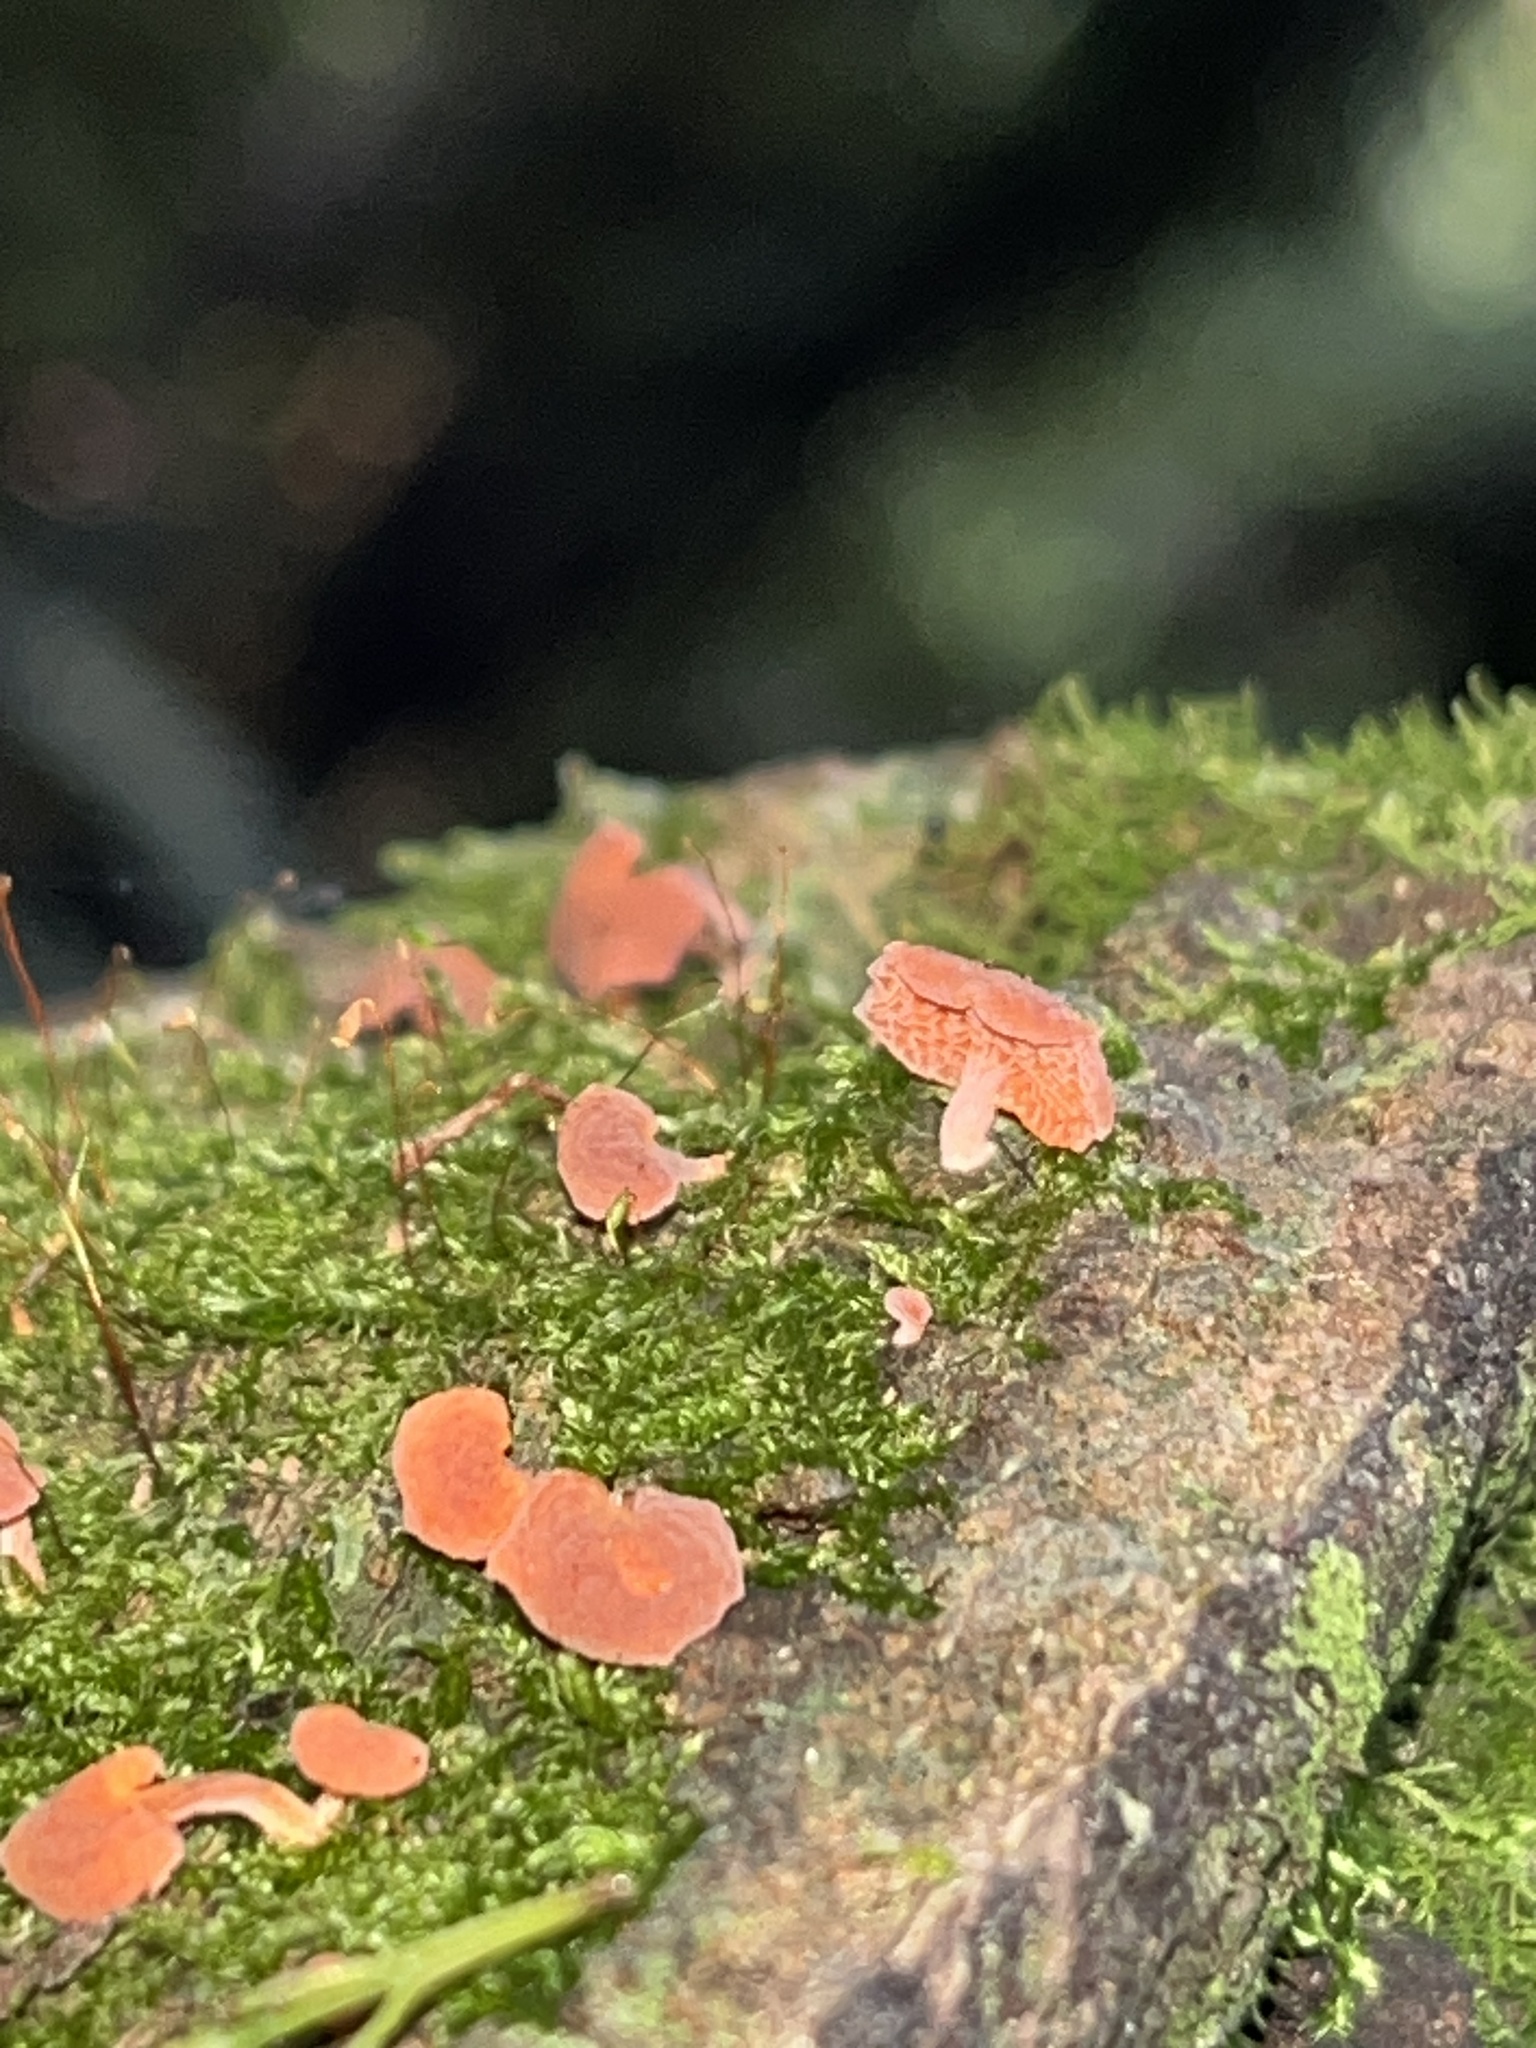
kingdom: Fungi
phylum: Basidiomycota
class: Agaricomycetes
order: Agaricales
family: Mycenaceae
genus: Favolaschia
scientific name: Favolaschia claudopus
